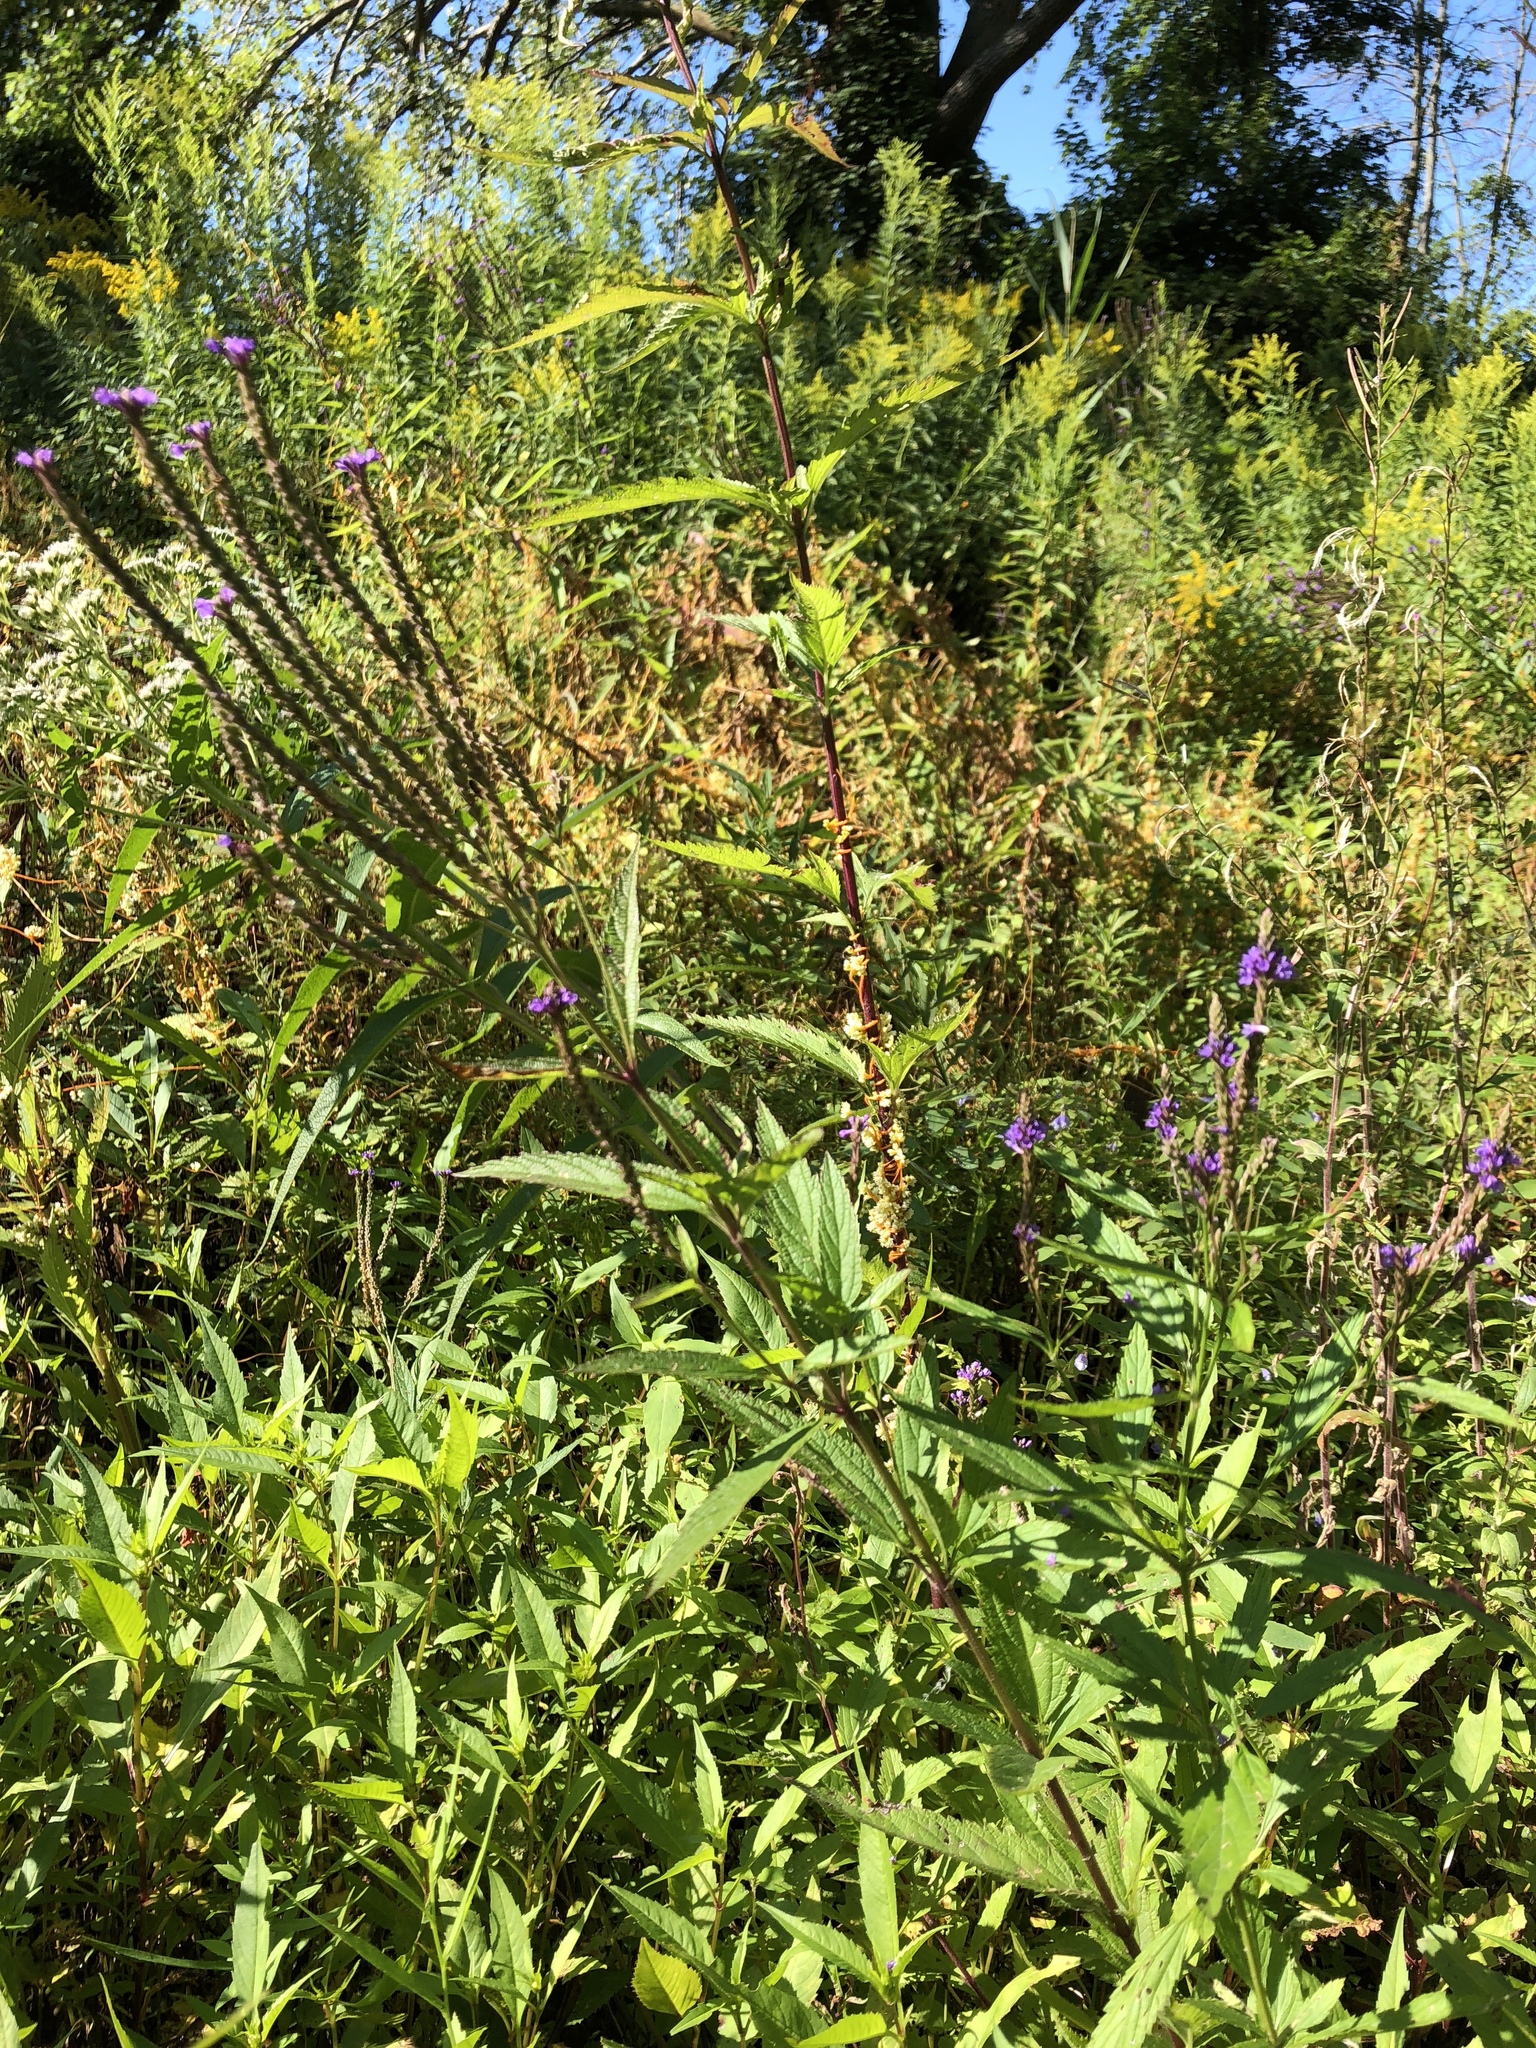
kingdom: Plantae
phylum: Tracheophyta
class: Magnoliopsida
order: Lamiales
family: Verbenaceae
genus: Verbena
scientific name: Verbena hastata
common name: American blue vervain
